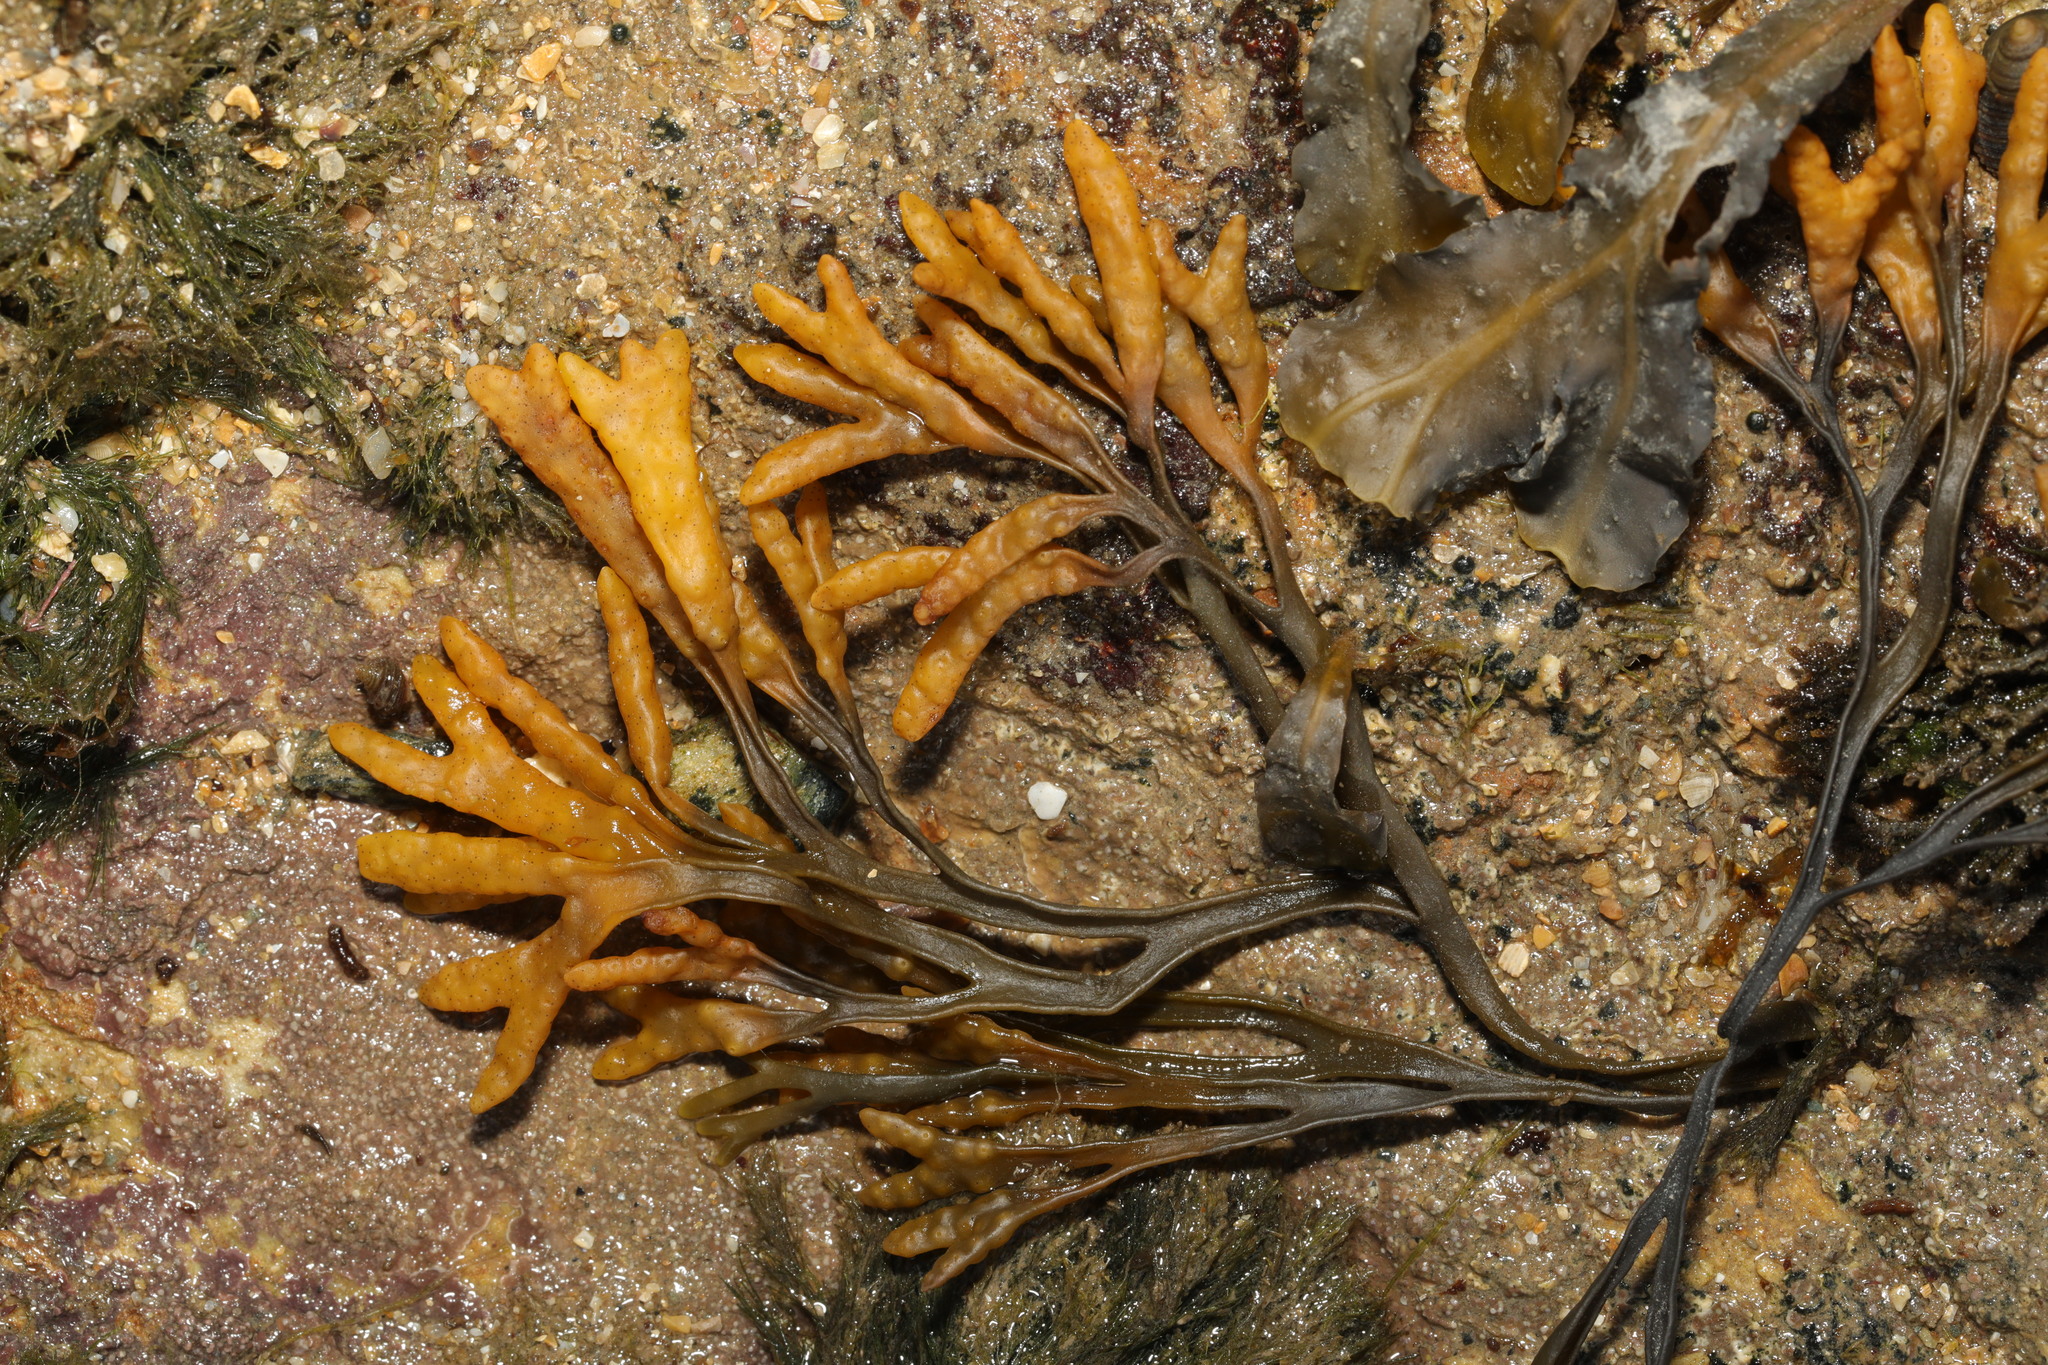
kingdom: Chromista
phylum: Ochrophyta
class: Phaeophyceae
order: Fucales
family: Fucaceae
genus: Pelvetia
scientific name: Pelvetia canaliculata
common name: Channelled wrack
